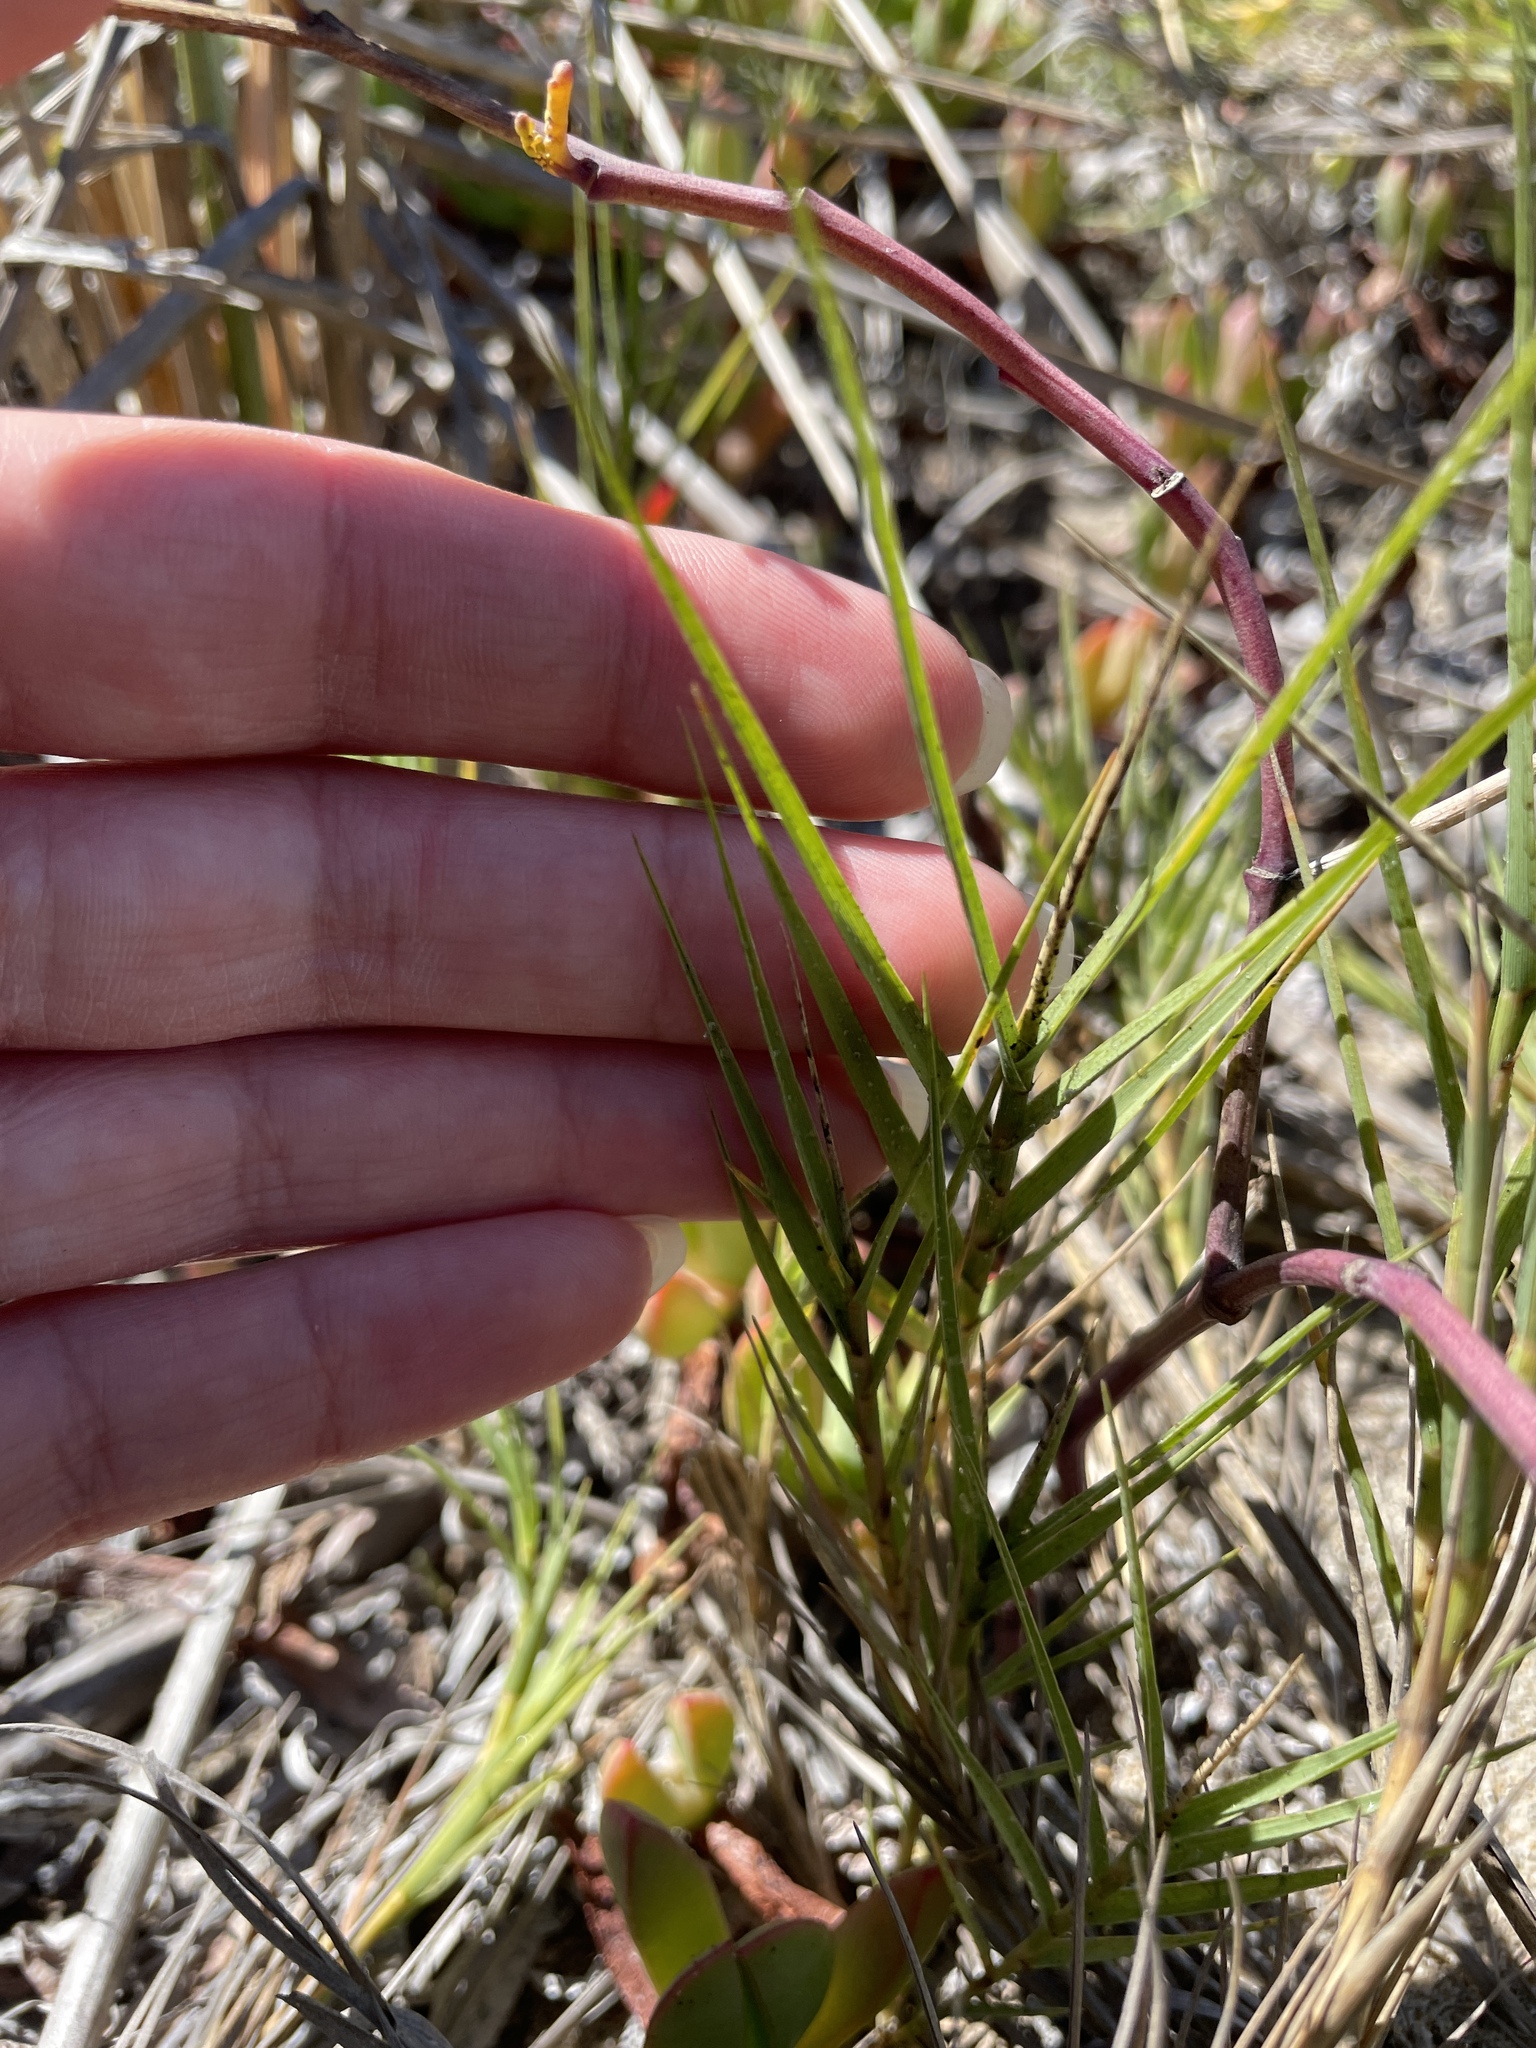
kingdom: Plantae
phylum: Tracheophyta
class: Liliopsida
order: Poales
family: Poaceae
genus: Distichlis
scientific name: Distichlis spicata
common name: Saltgrass
